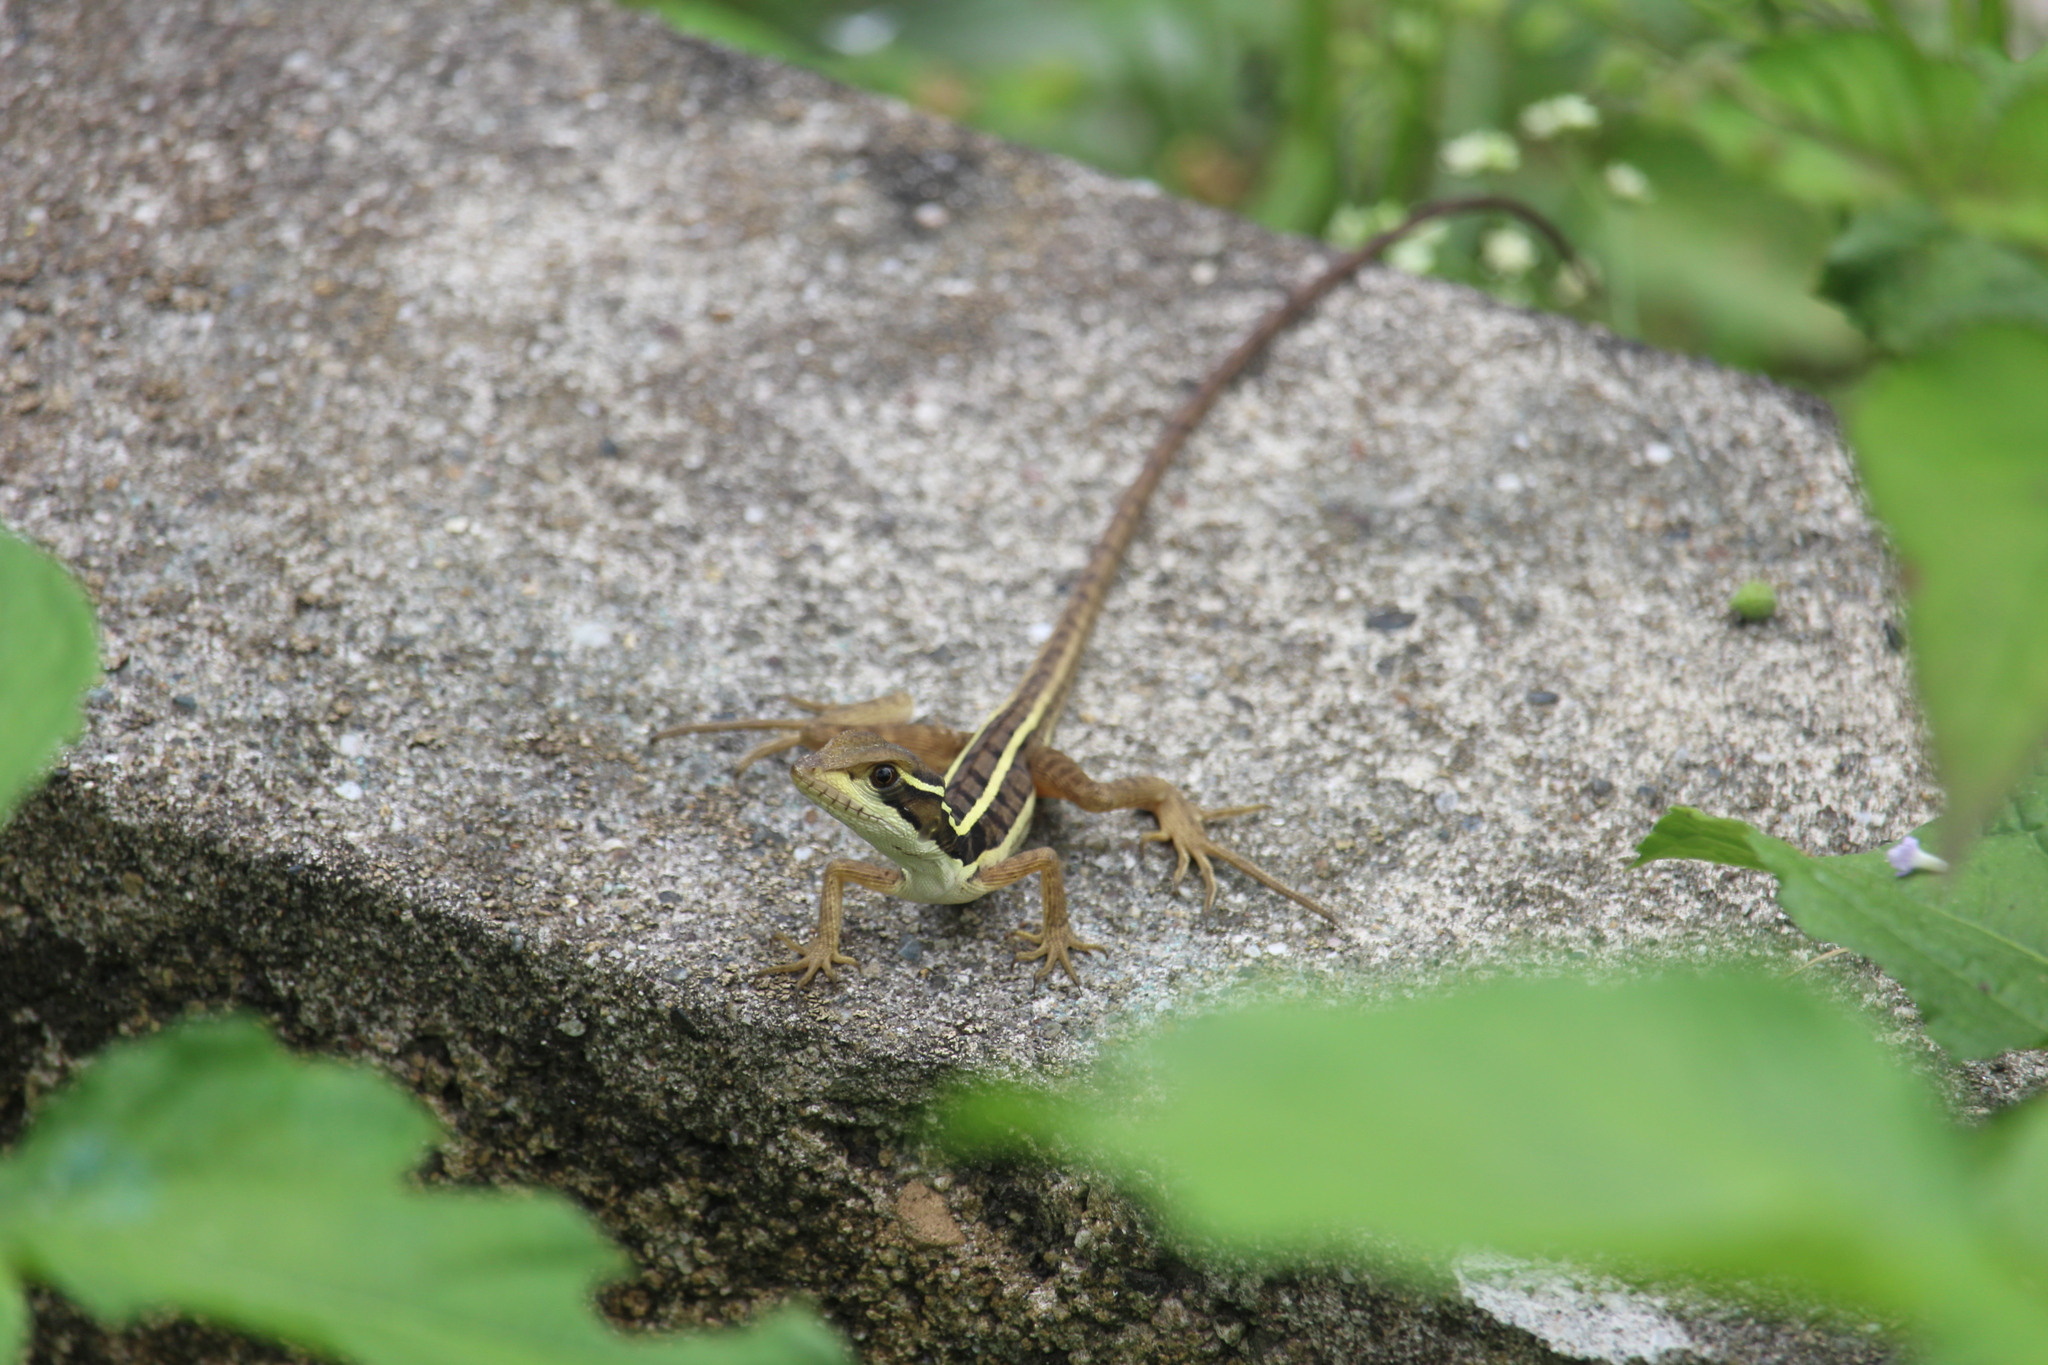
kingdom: Animalia
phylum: Chordata
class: Squamata
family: Corytophanidae
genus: Basiliscus
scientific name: Basiliscus vittatus
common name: Brown basilisk
